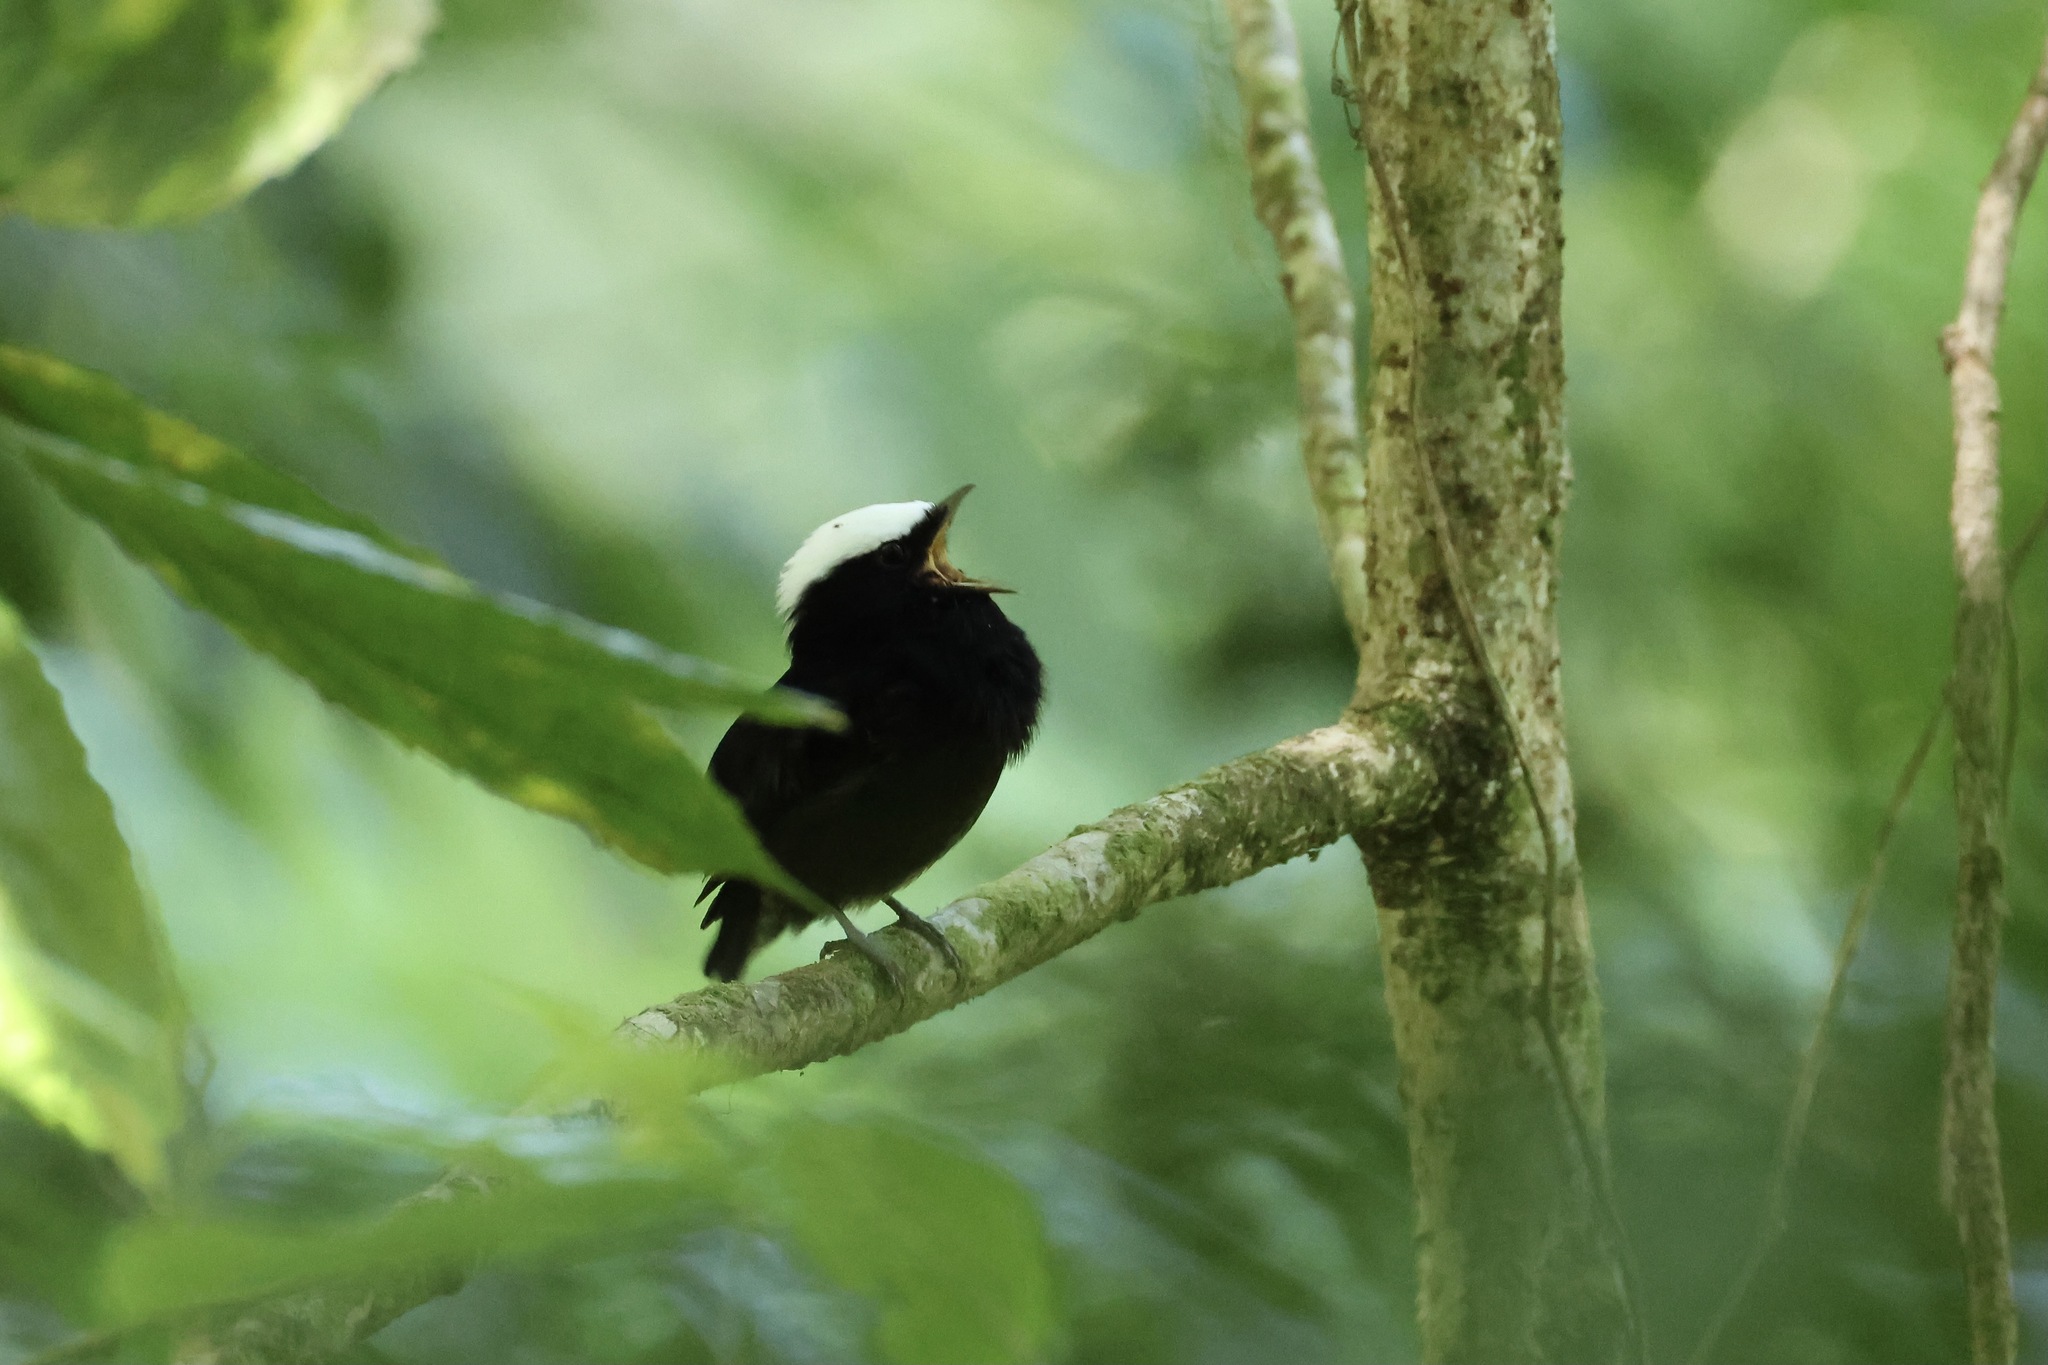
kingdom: Animalia
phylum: Chordata
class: Aves
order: Passeriformes
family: Pipridae
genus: Pipra
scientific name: Pipra pipra
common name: White-crowned manakin
